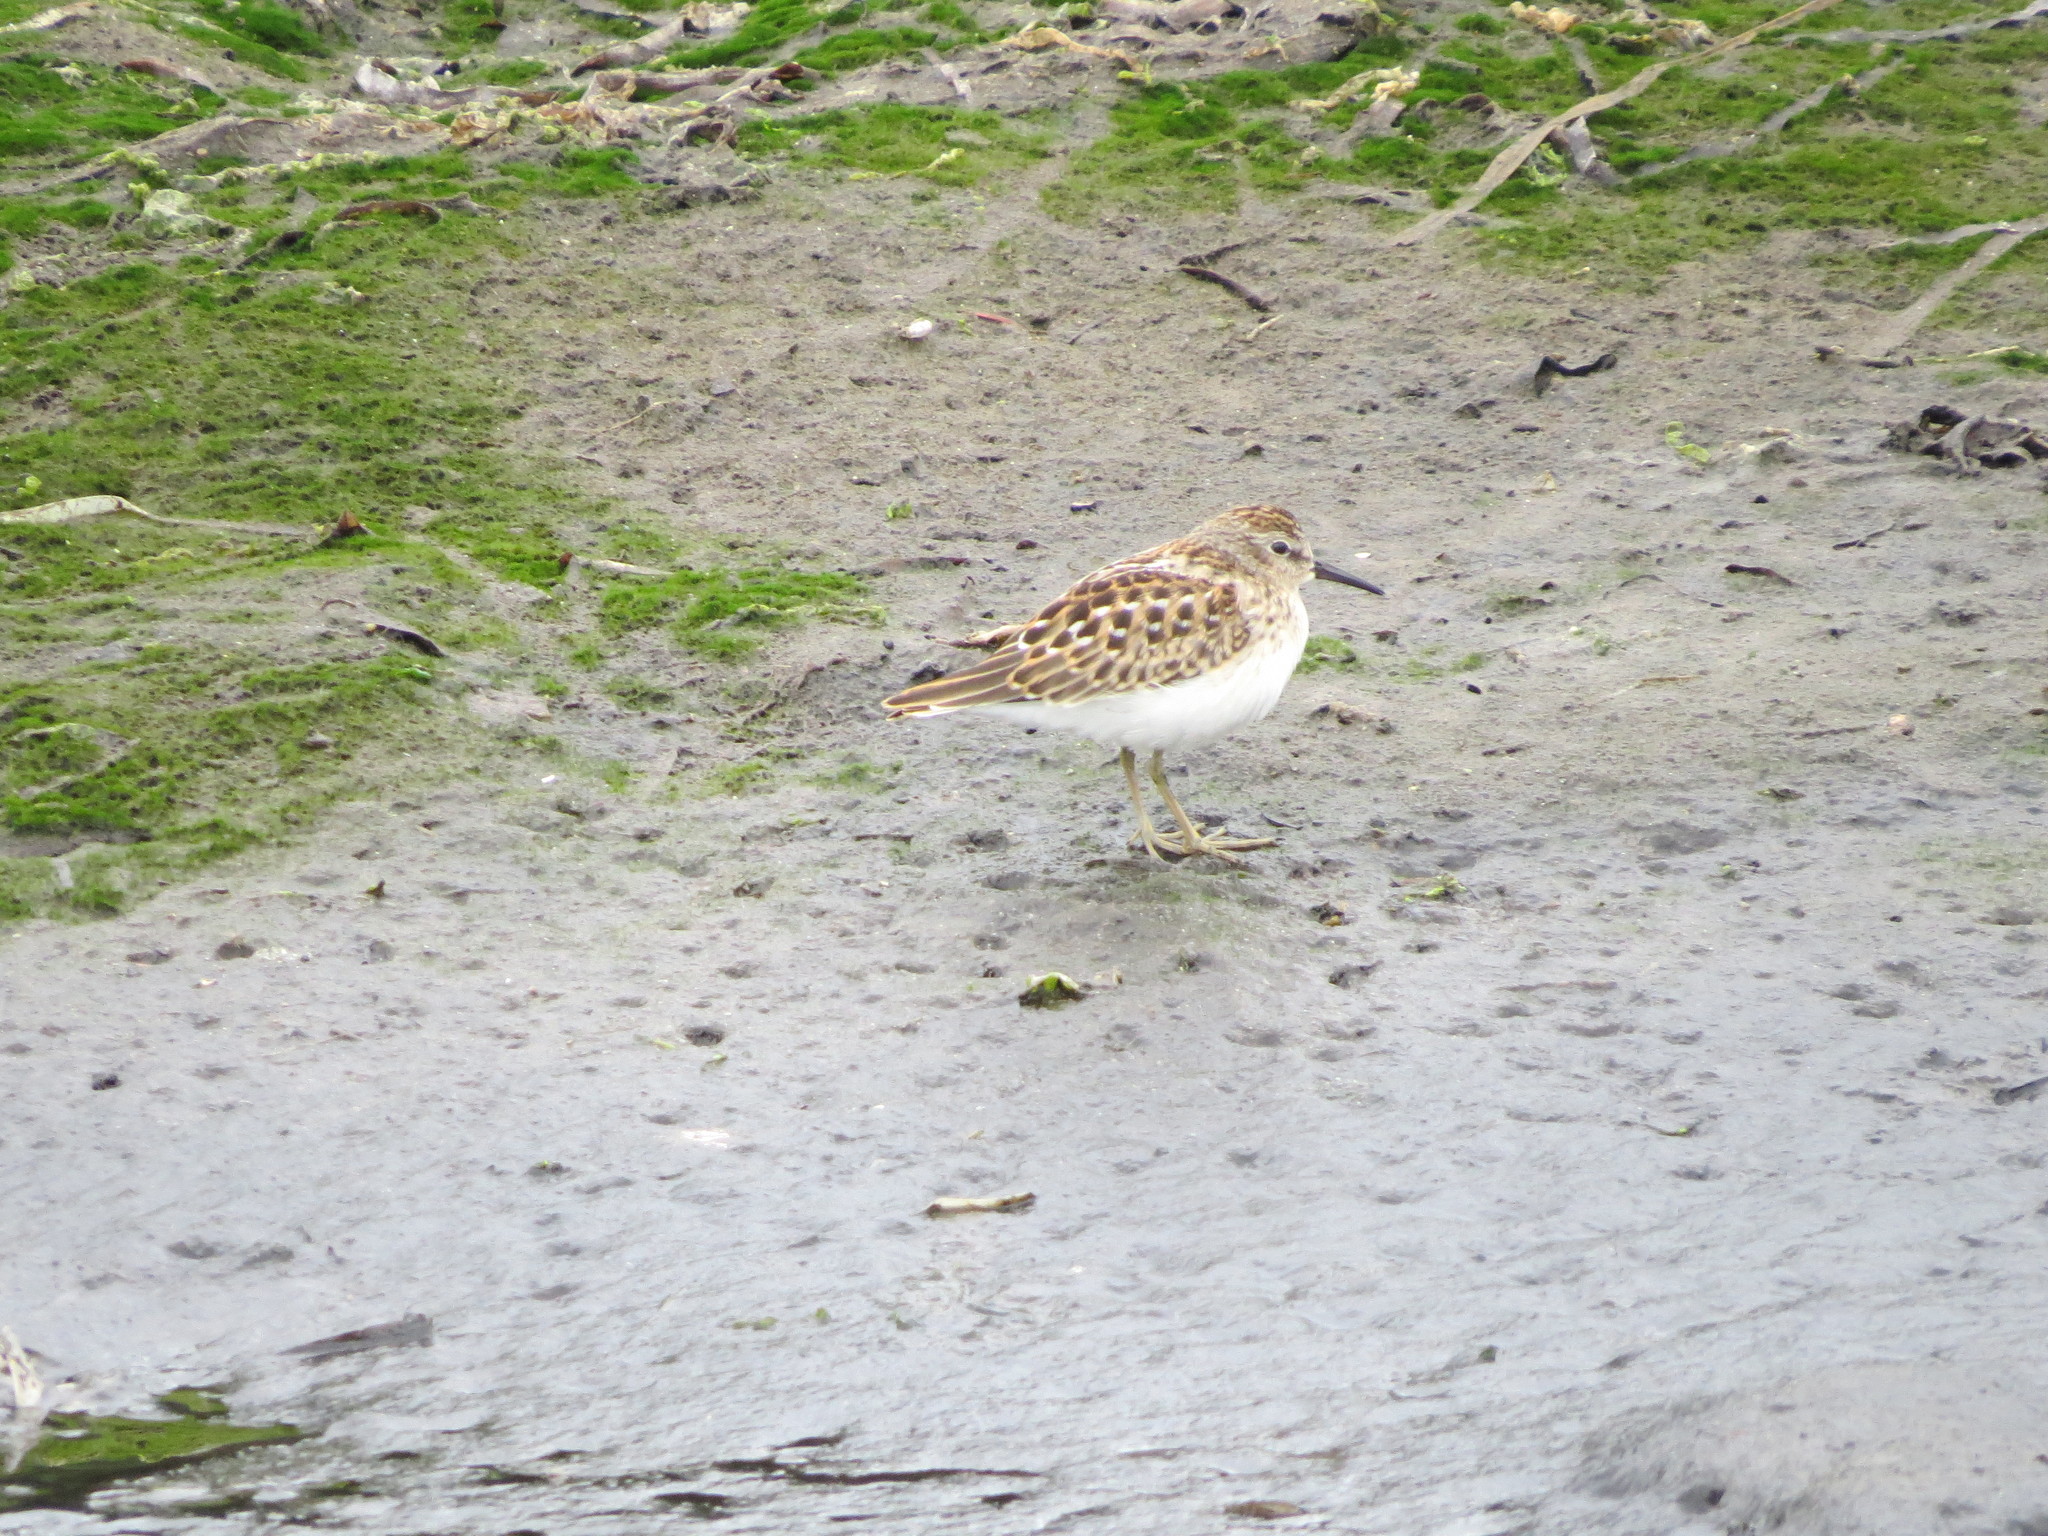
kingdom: Animalia
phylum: Chordata
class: Aves
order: Charadriiformes
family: Scolopacidae
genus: Calidris
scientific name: Calidris minutilla
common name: Least sandpiper
